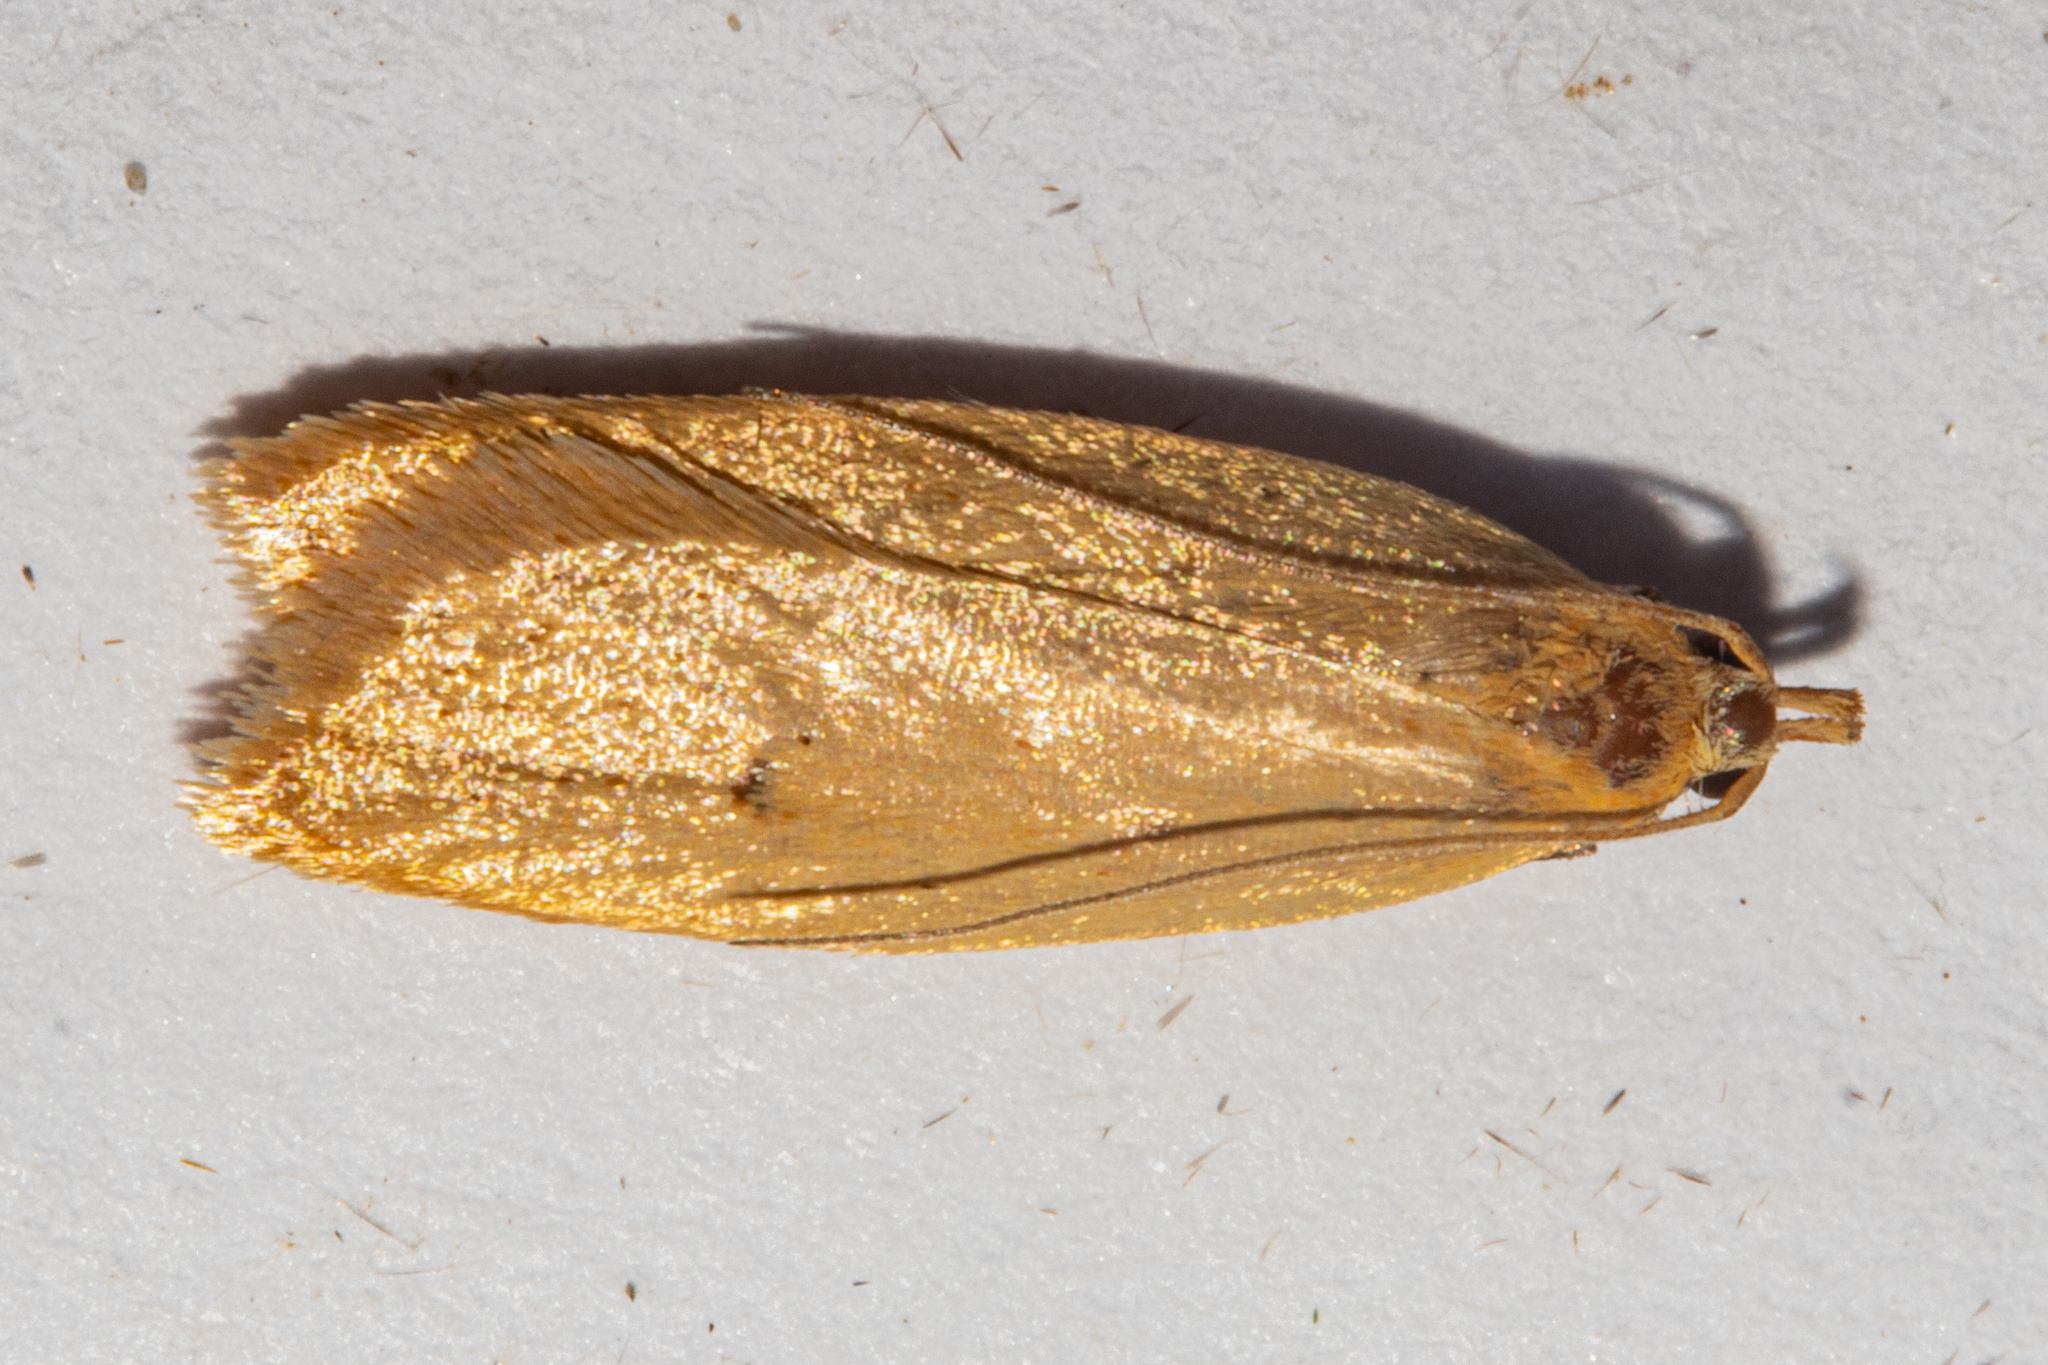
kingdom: Animalia
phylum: Arthropoda
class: Insecta
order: Lepidoptera
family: Oecophoridae
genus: Gymnobathra
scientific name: Gymnobathra sarcoxantha
